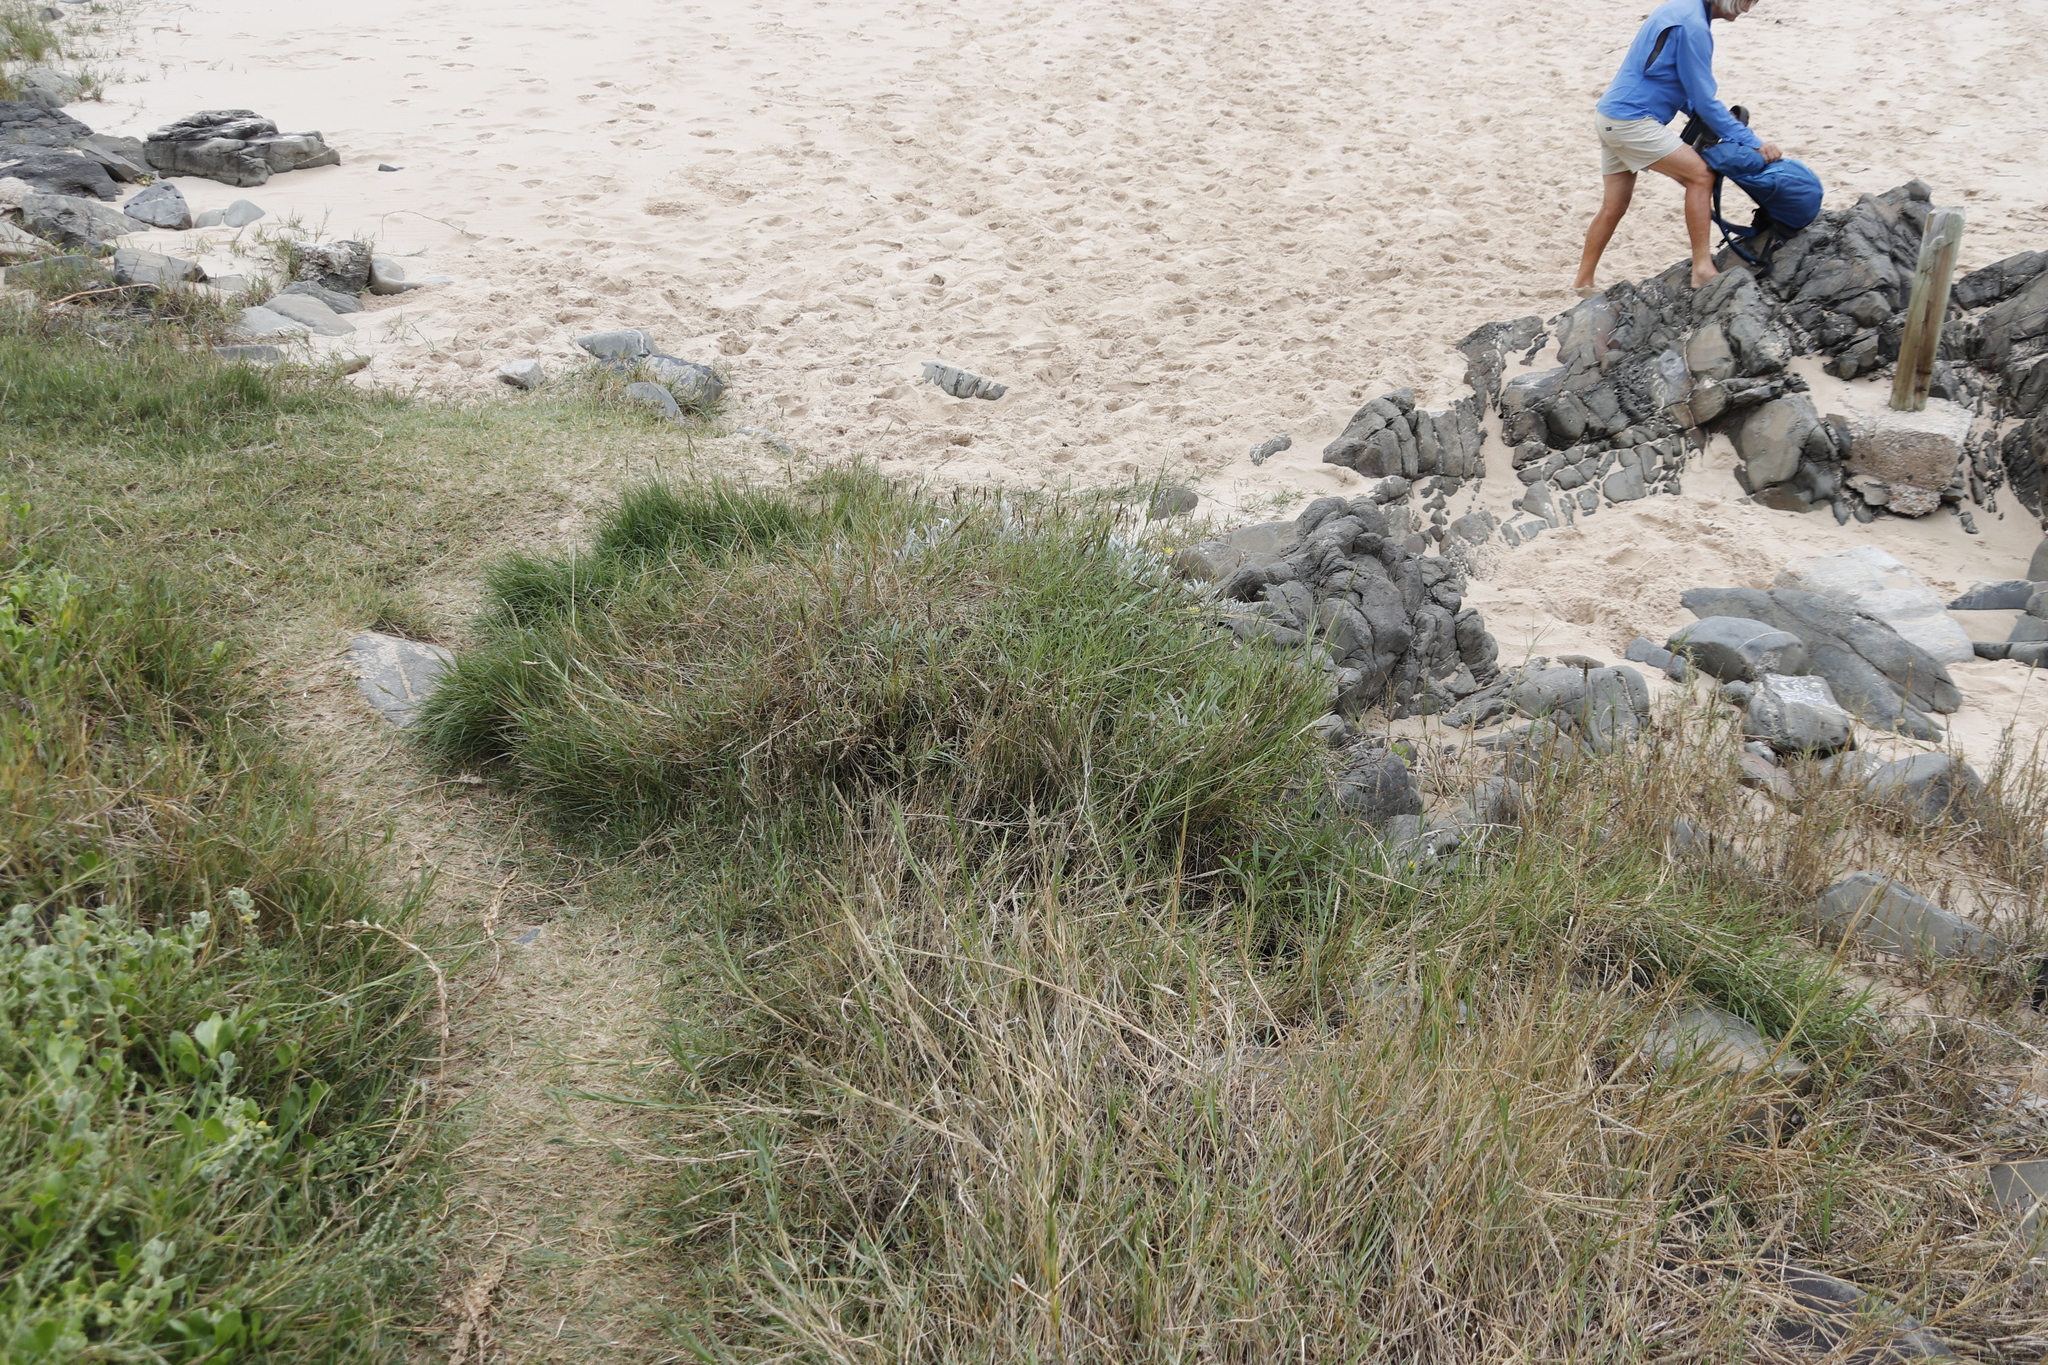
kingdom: Plantae
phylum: Tracheophyta
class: Liliopsida
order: Poales
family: Poaceae
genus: Sporobolus
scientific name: Sporobolus virginicus
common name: Beach dropseed
